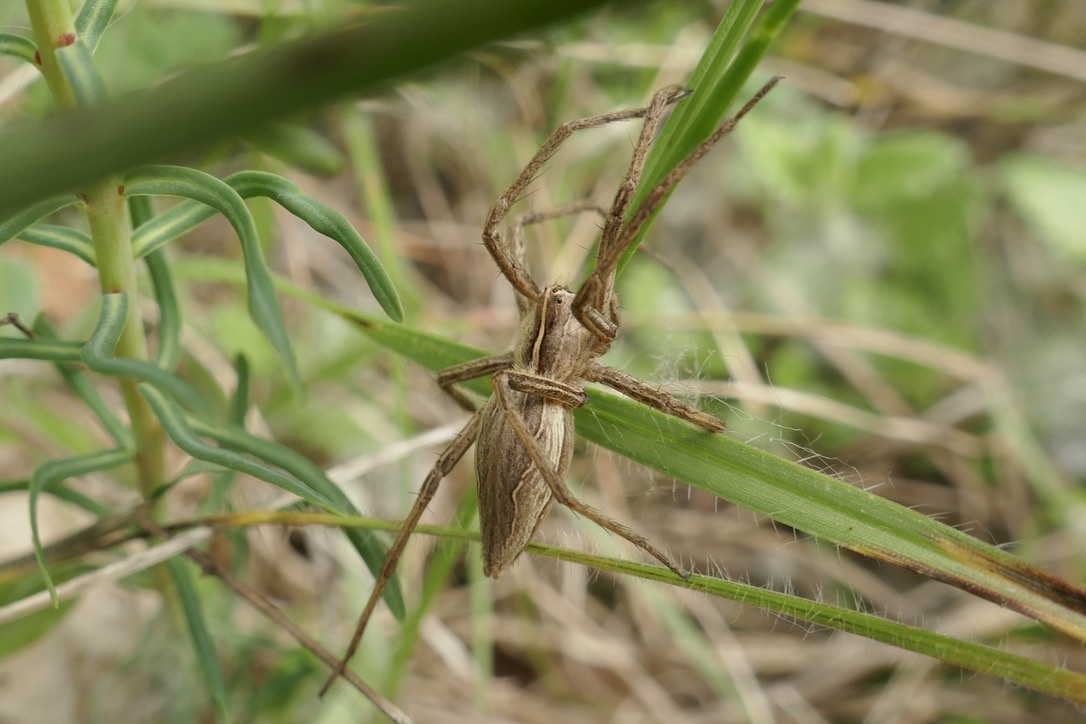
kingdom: Animalia
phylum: Arthropoda
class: Arachnida
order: Araneae
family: Pisauridae
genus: Pisaura
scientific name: Pisaura mirabilis
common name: Tent spider
